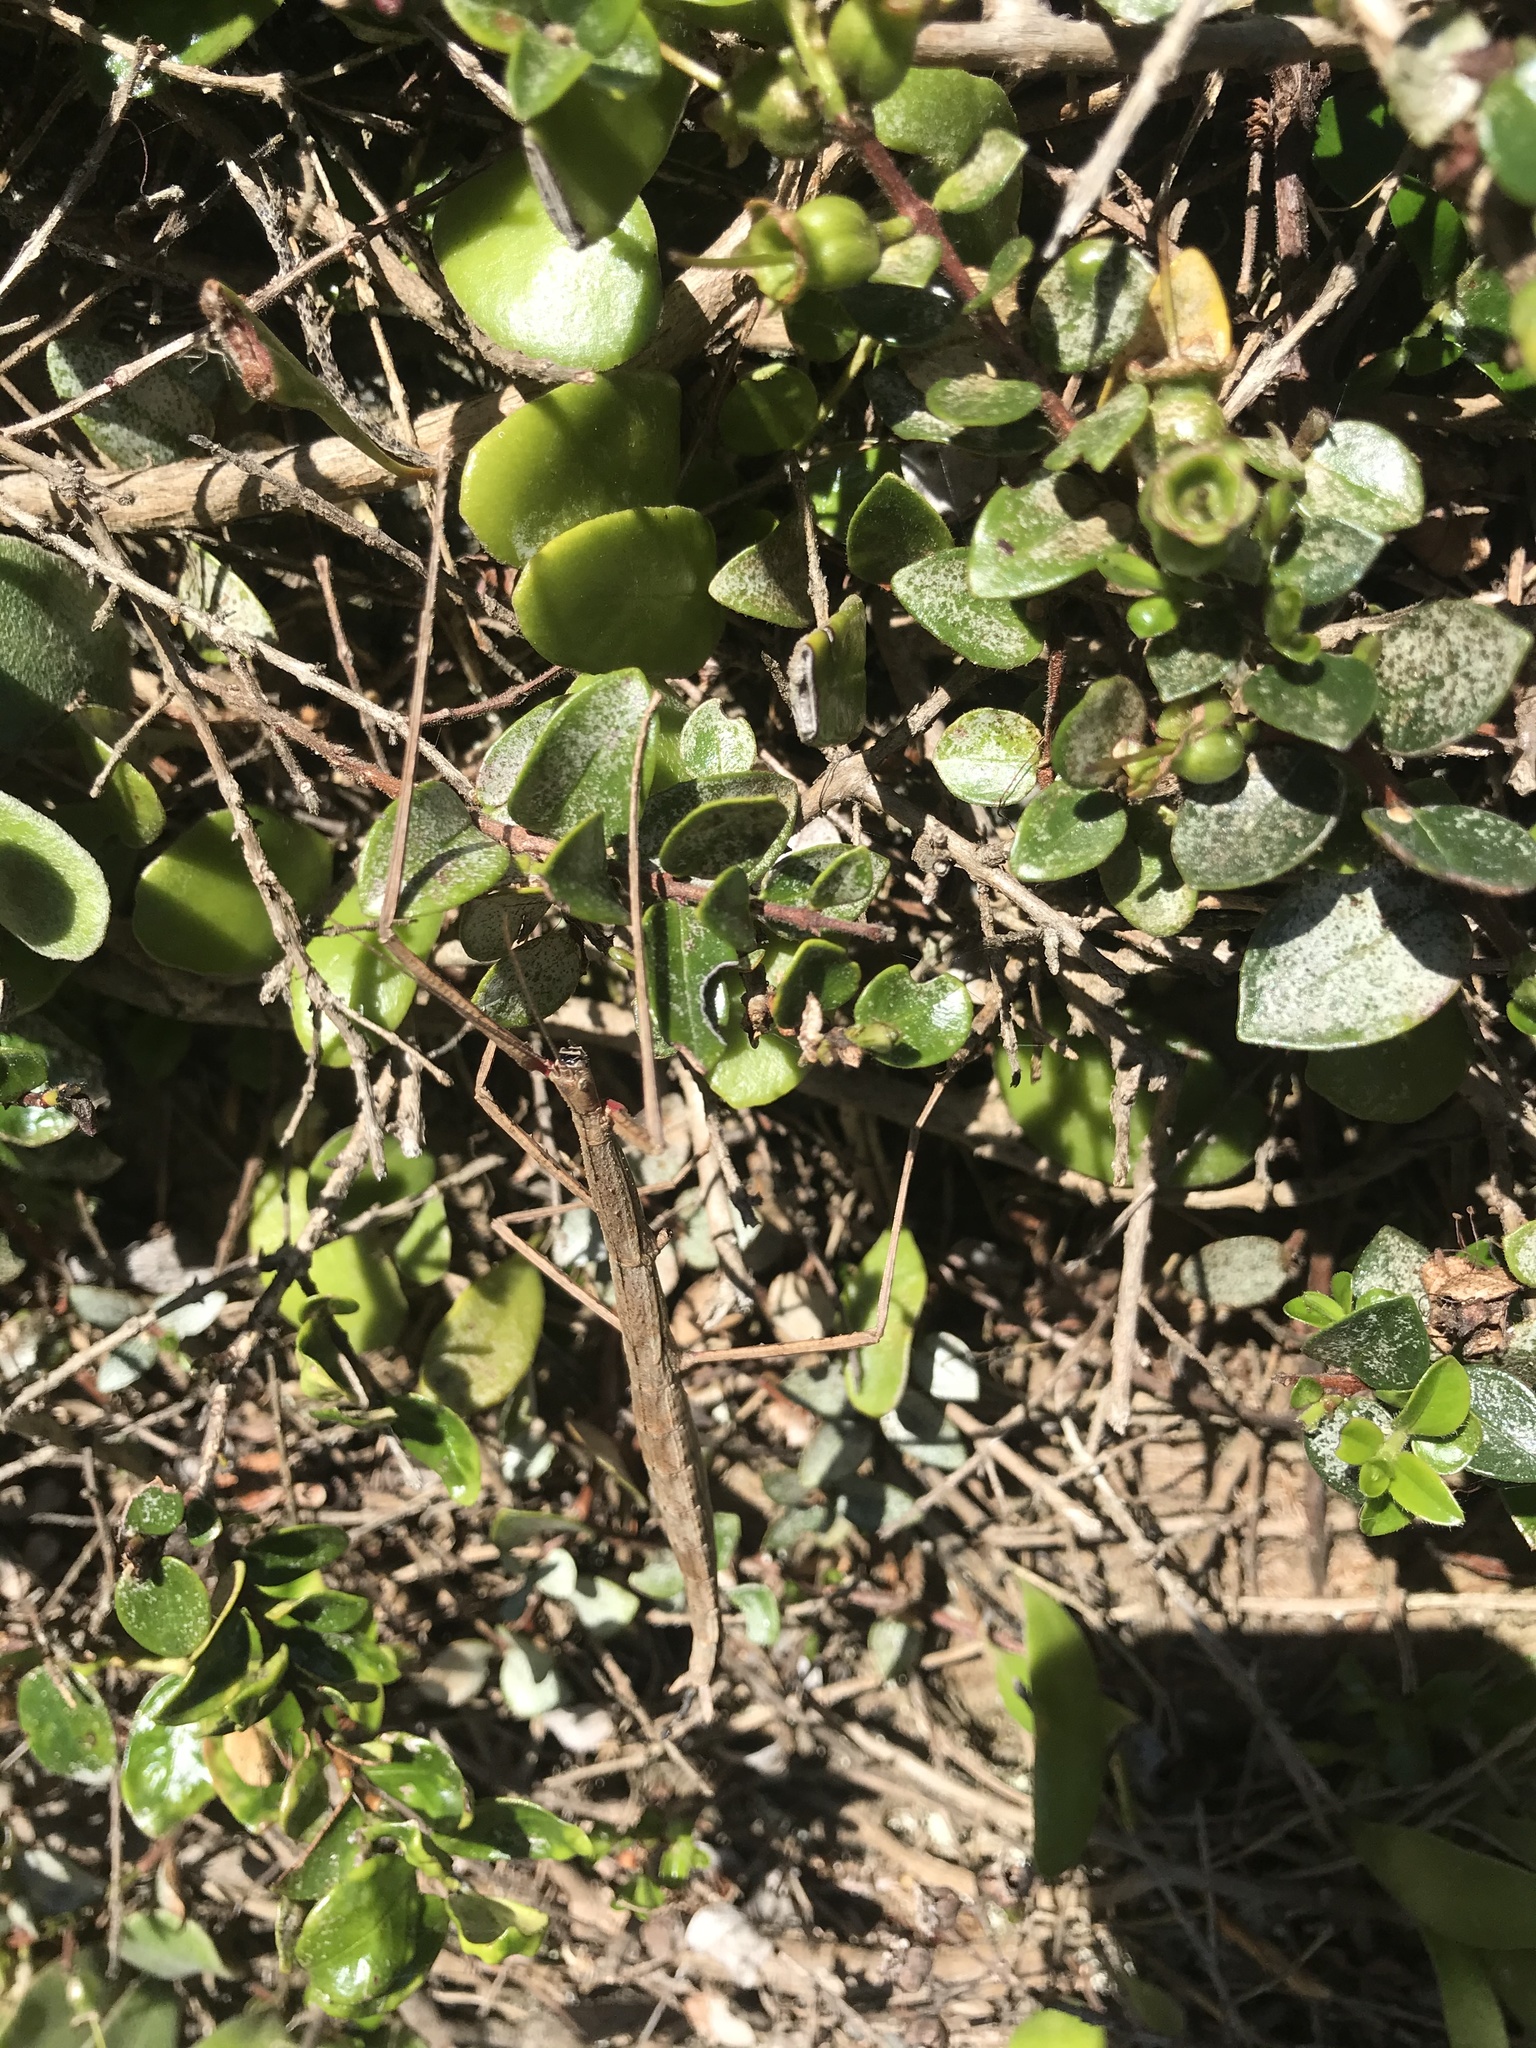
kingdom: Animalia
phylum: Arthropoda
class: Insecta
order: Phasmida
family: Phasmatidae
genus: Clitarchus
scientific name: Clitarchus hookeri
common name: Smooth stick insect
